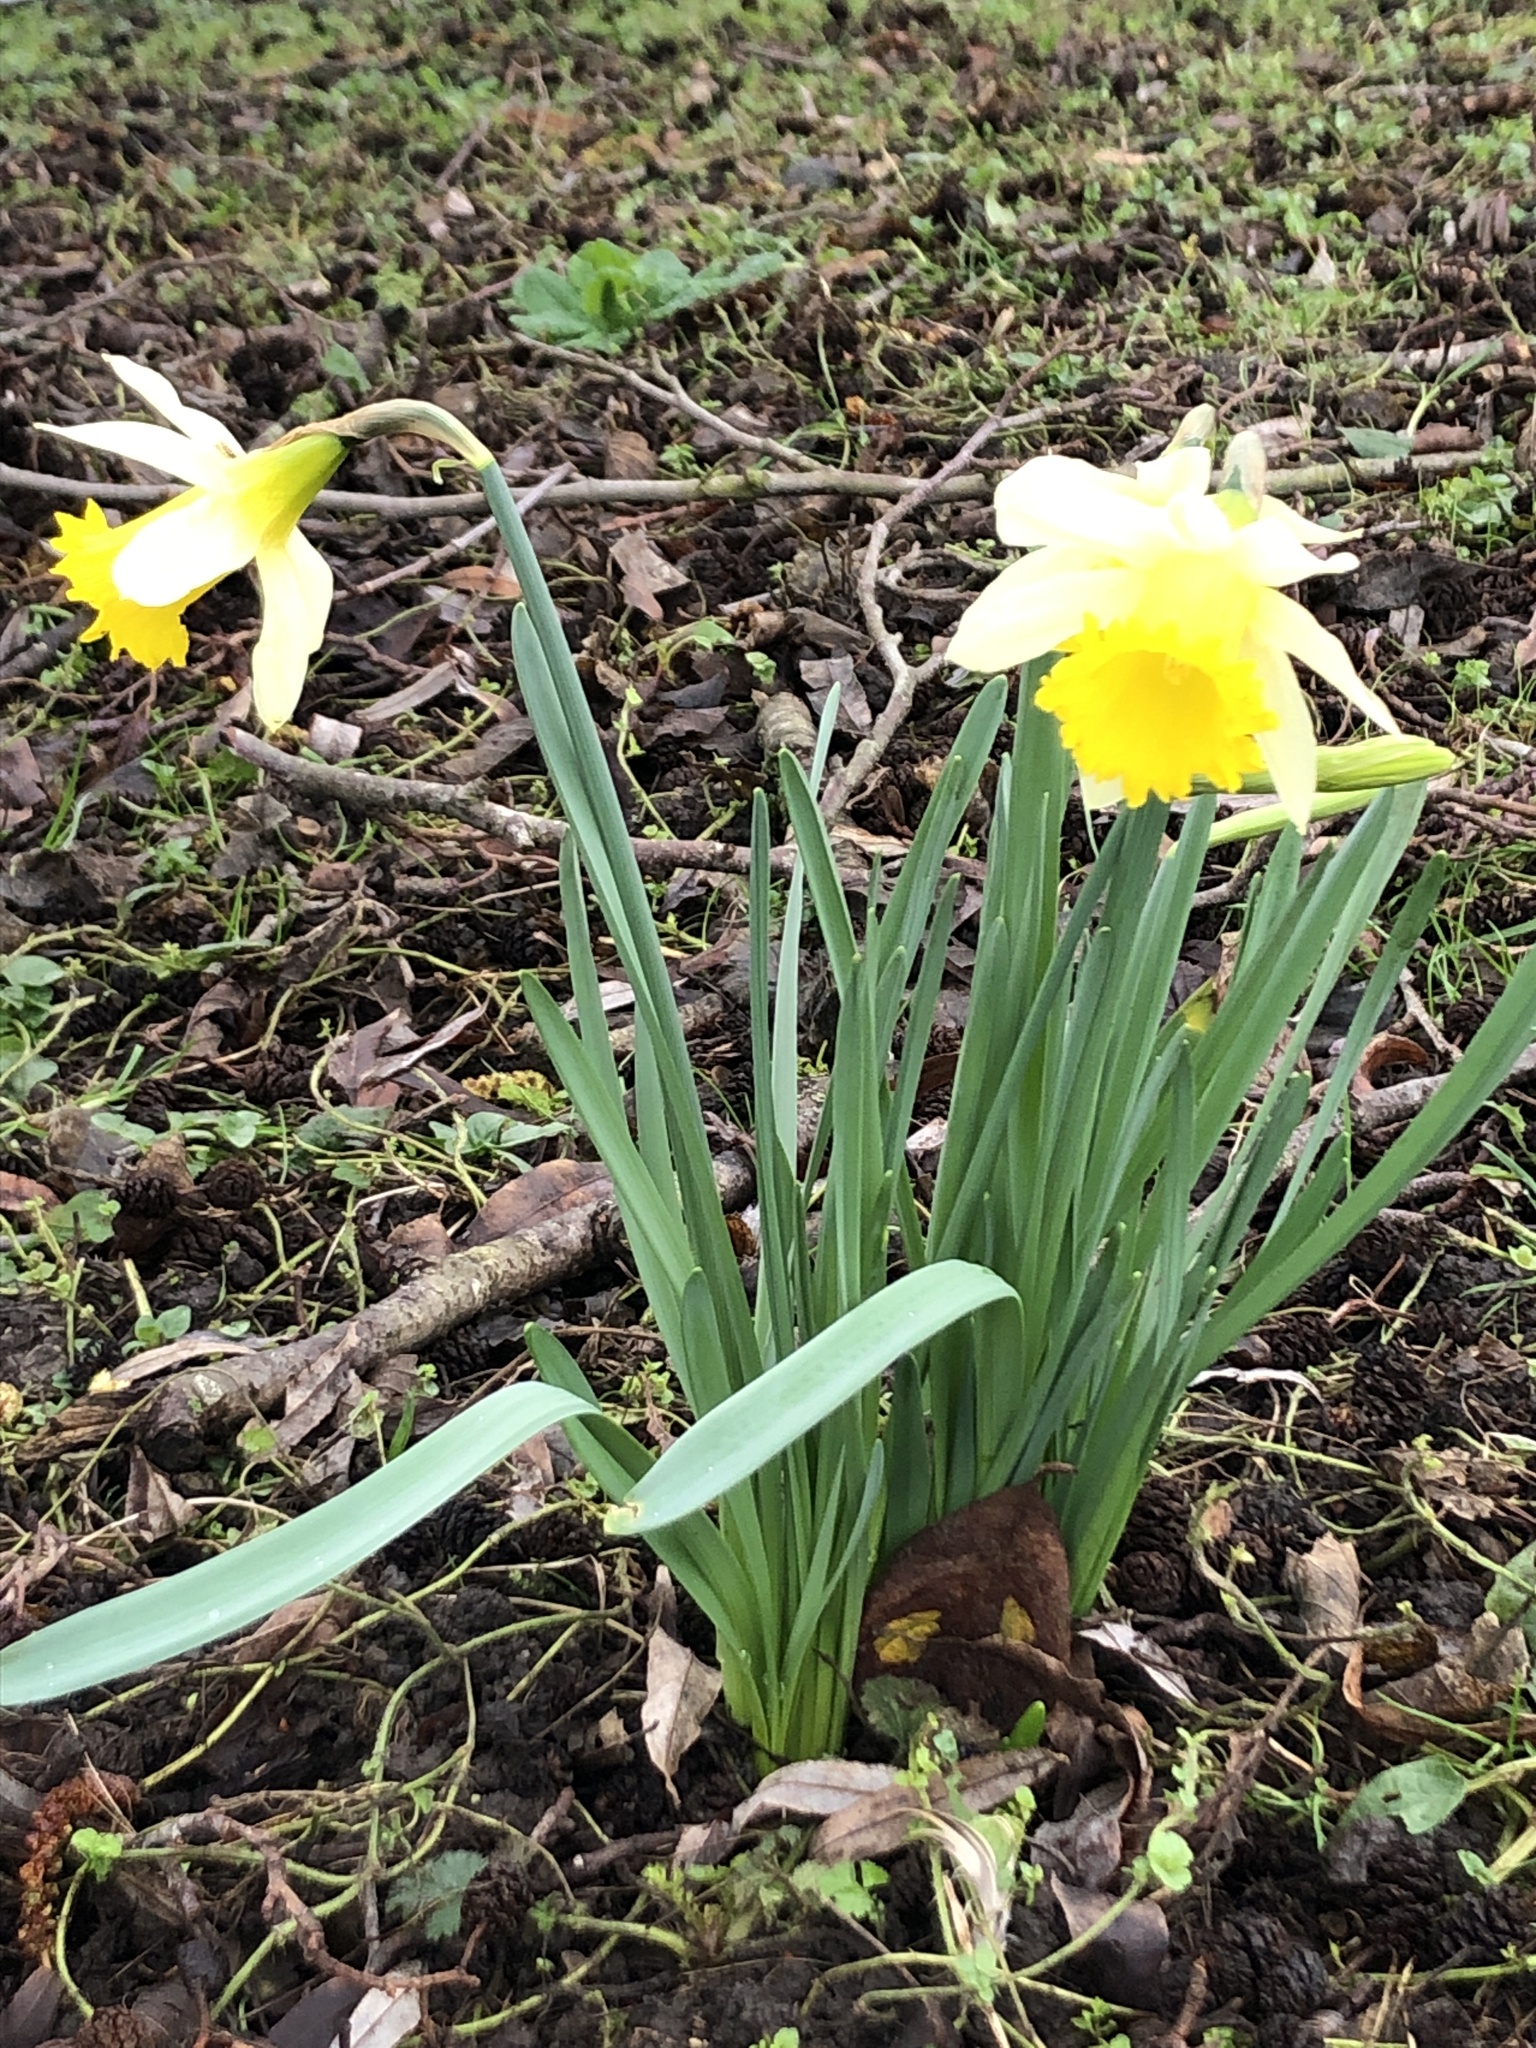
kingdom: Plantae
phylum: Tracheophyta
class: Liliopsida
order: Asparagales
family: Amaryllidaceae
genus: Narcissus
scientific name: Narcissus pseudonarcissus
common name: Daffodil
